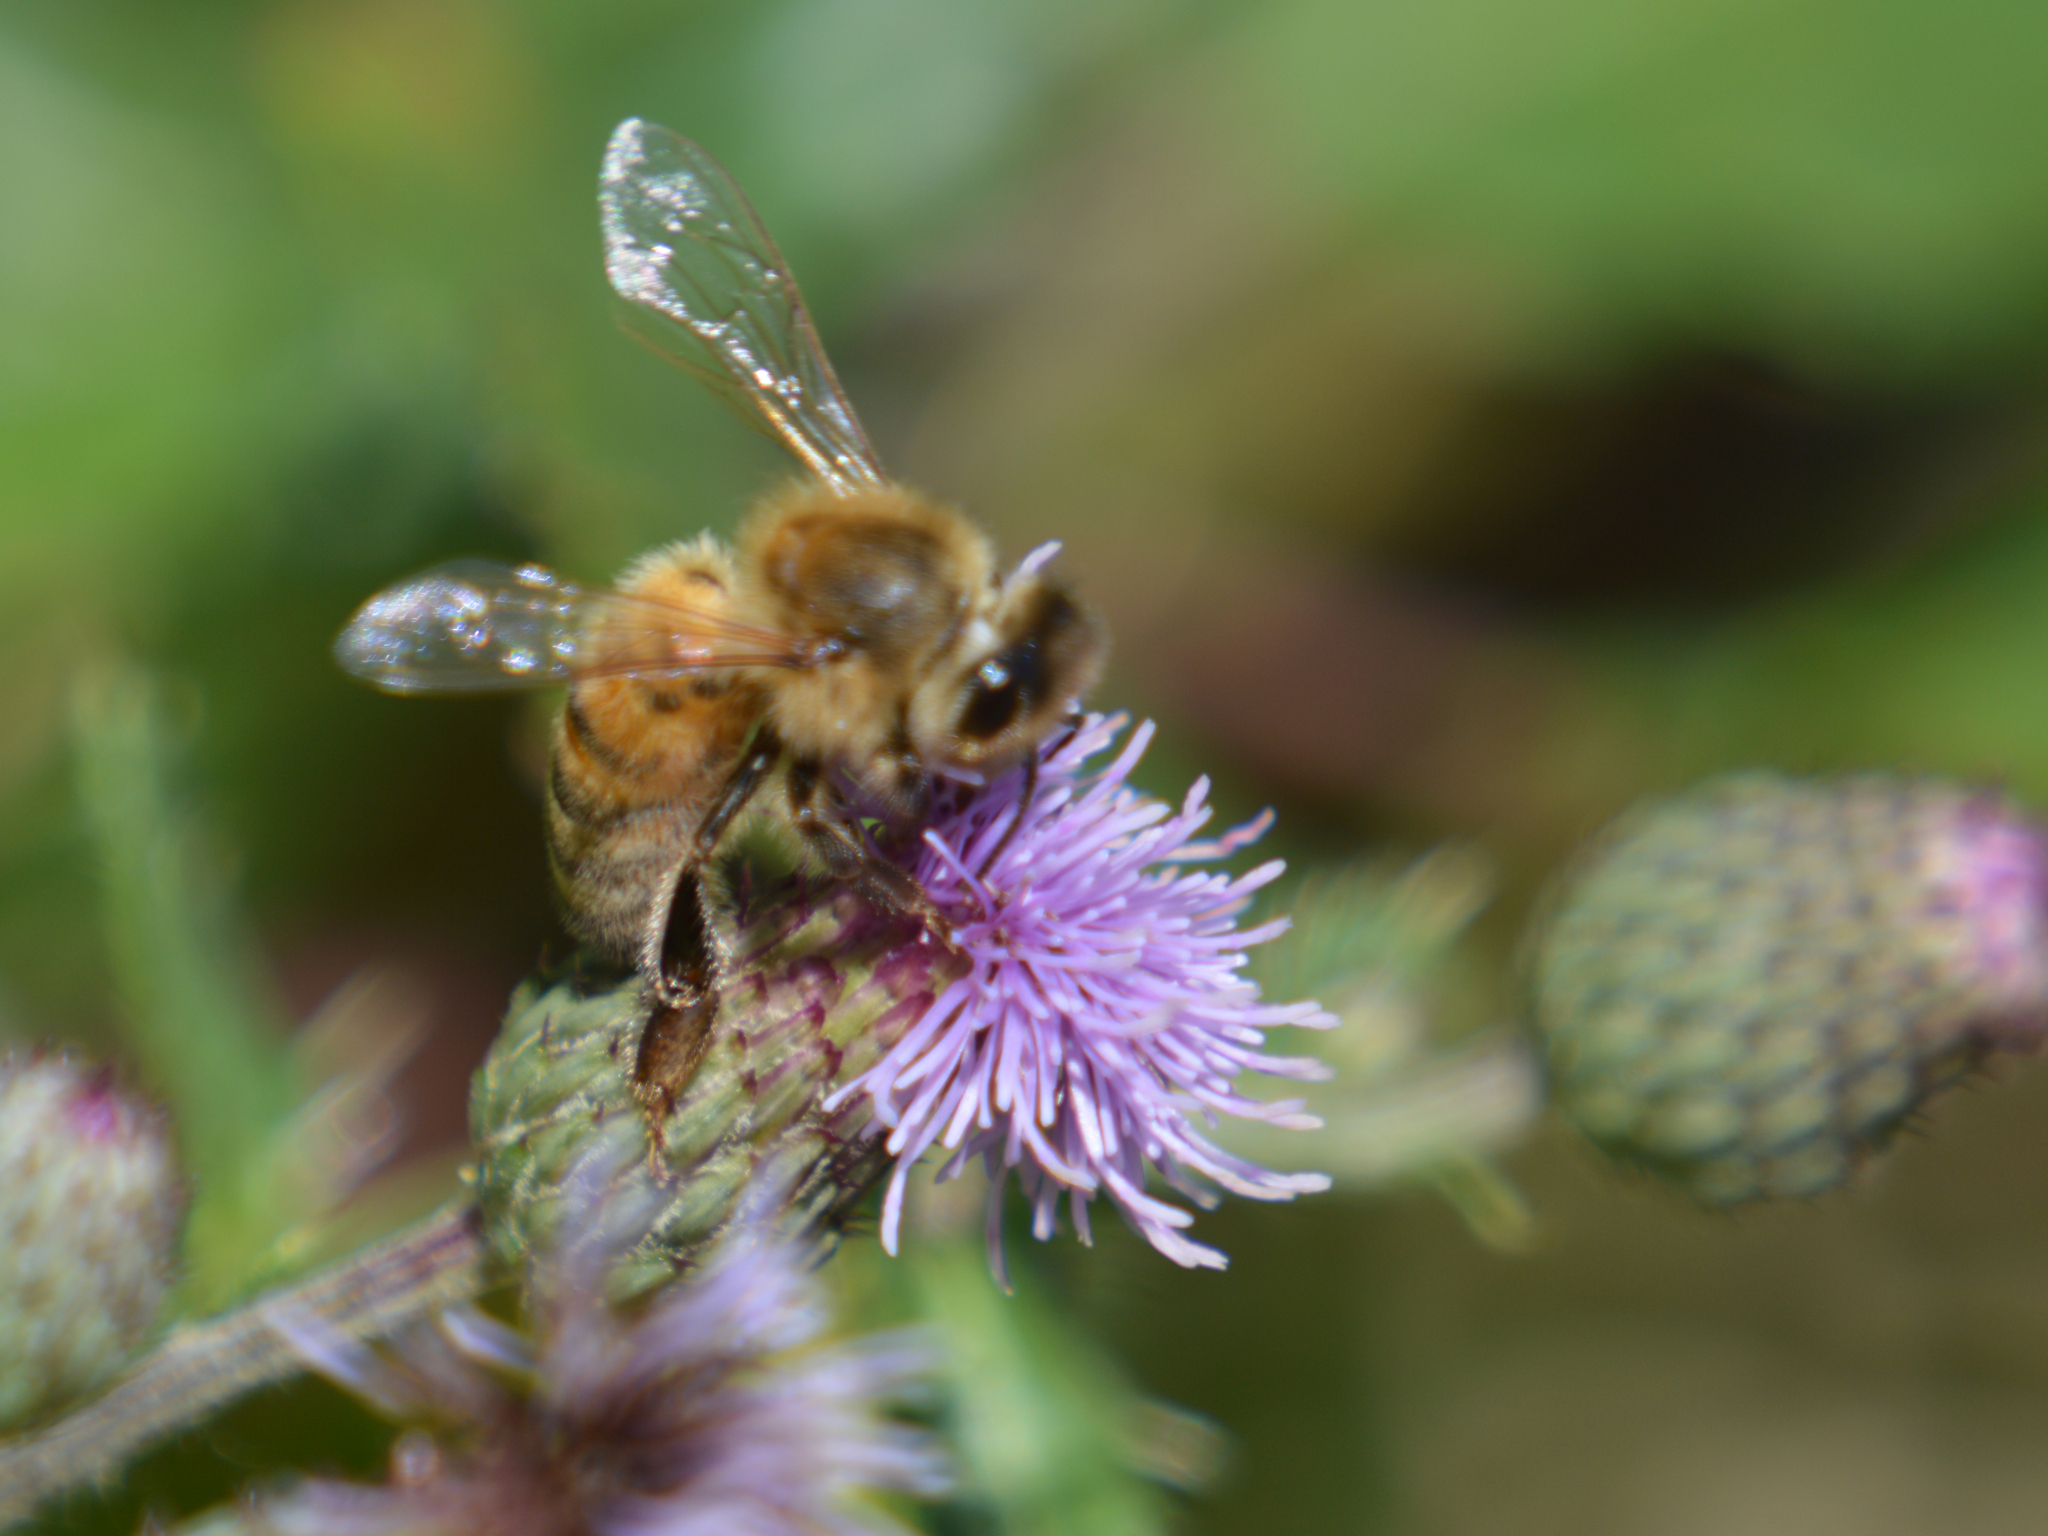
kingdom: Animalia
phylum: Arthropoda
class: Insecta
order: Hymenoptera
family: Apidae
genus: Apis
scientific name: Apis mellifera
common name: Honey bee
